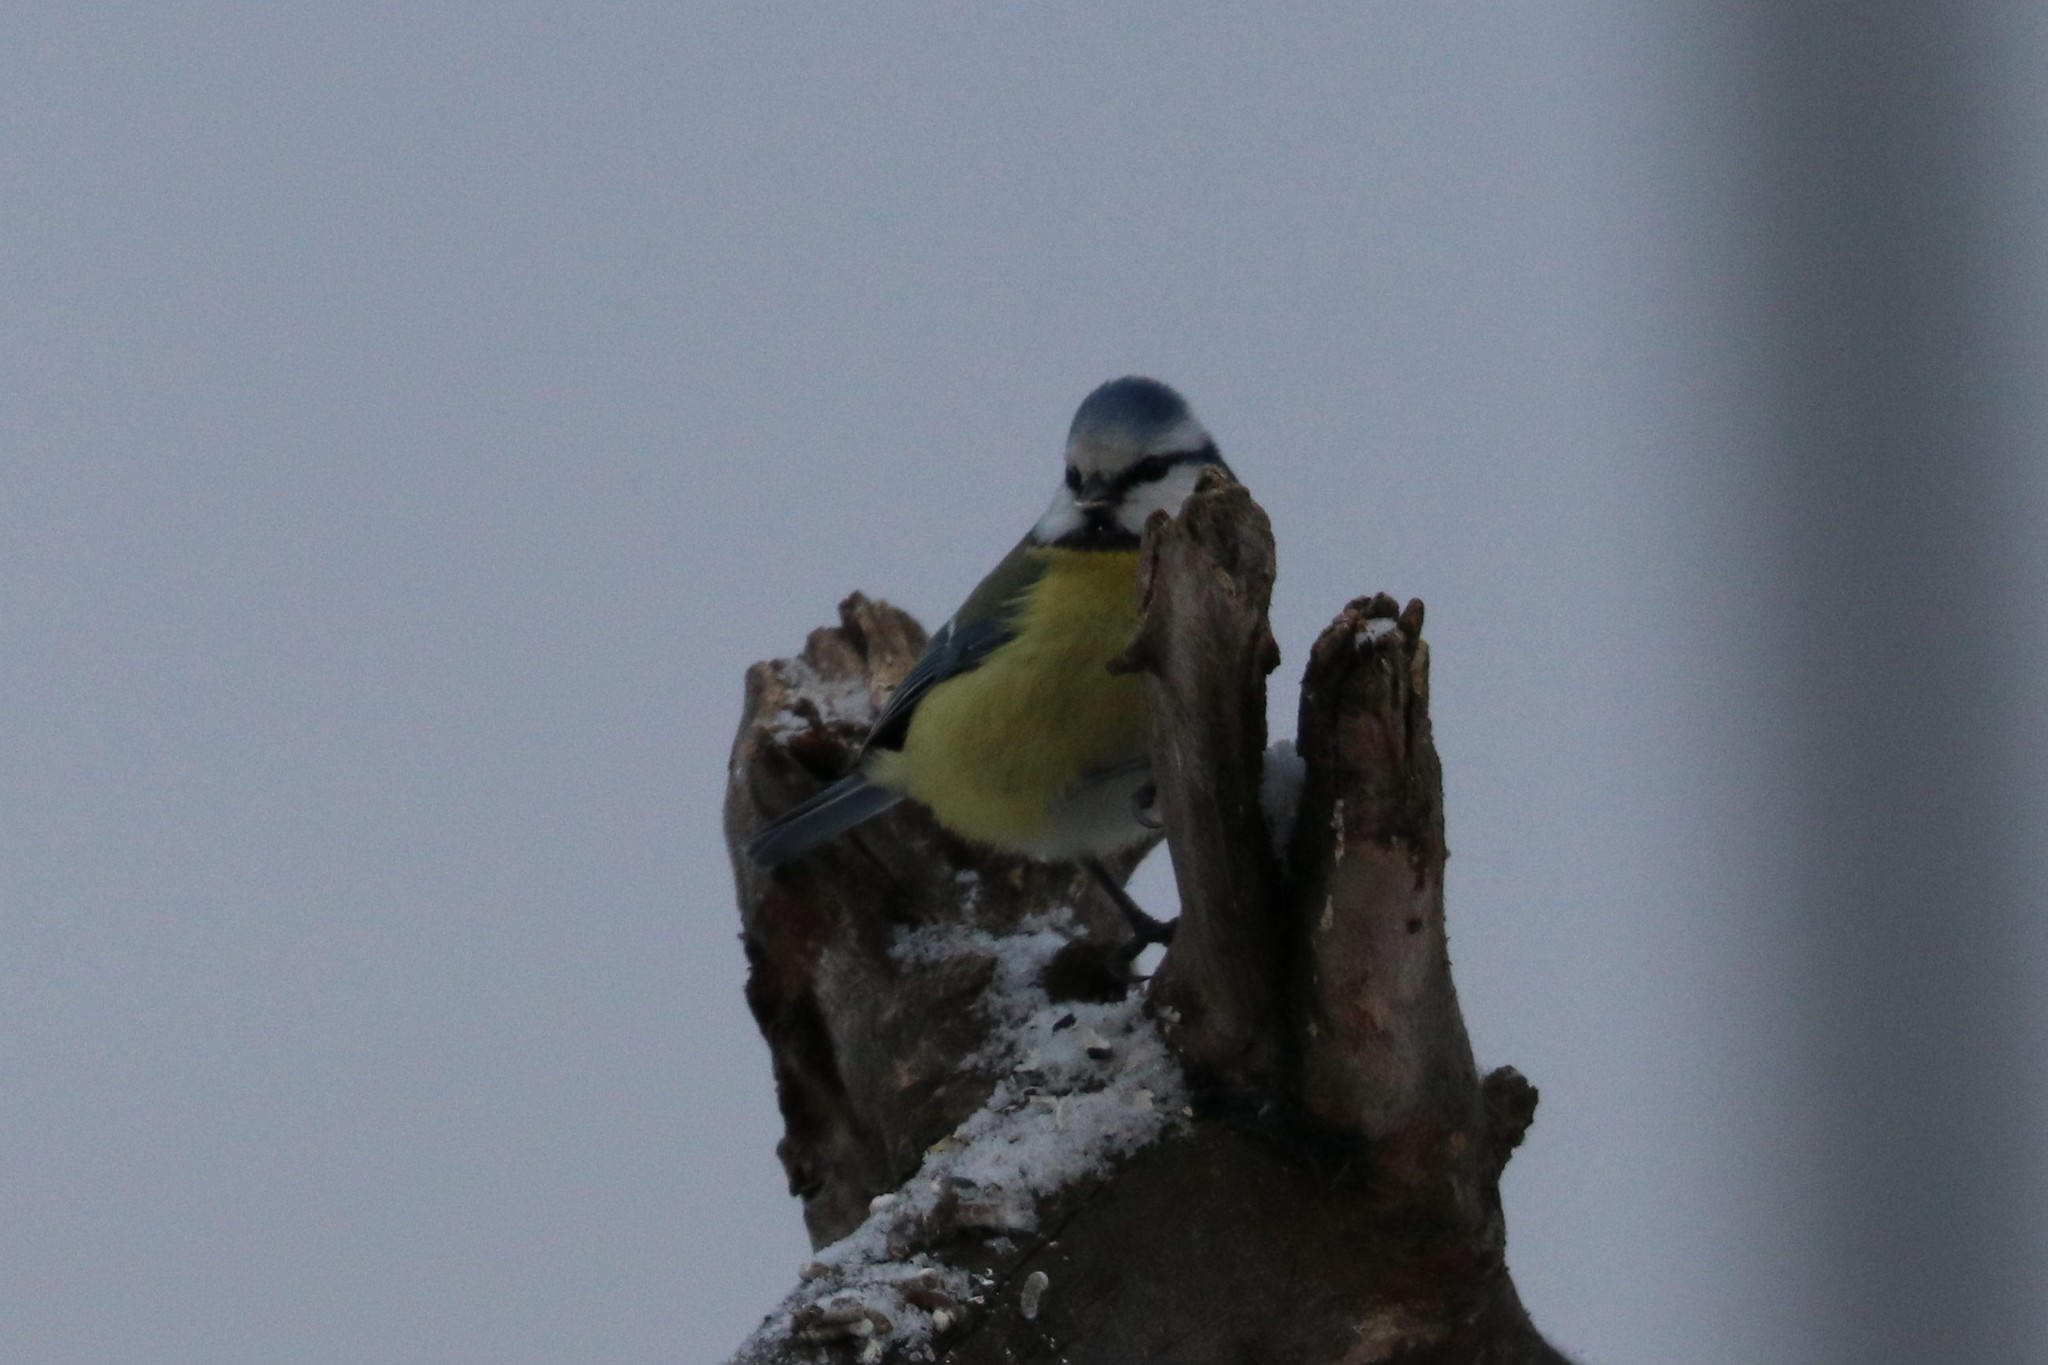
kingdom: Animalia
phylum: Chordata
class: Aves
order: Passeriformes
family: Paridae
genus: Cyanistes
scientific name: Cyanistes caeruleus
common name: Eurasian blue tit
